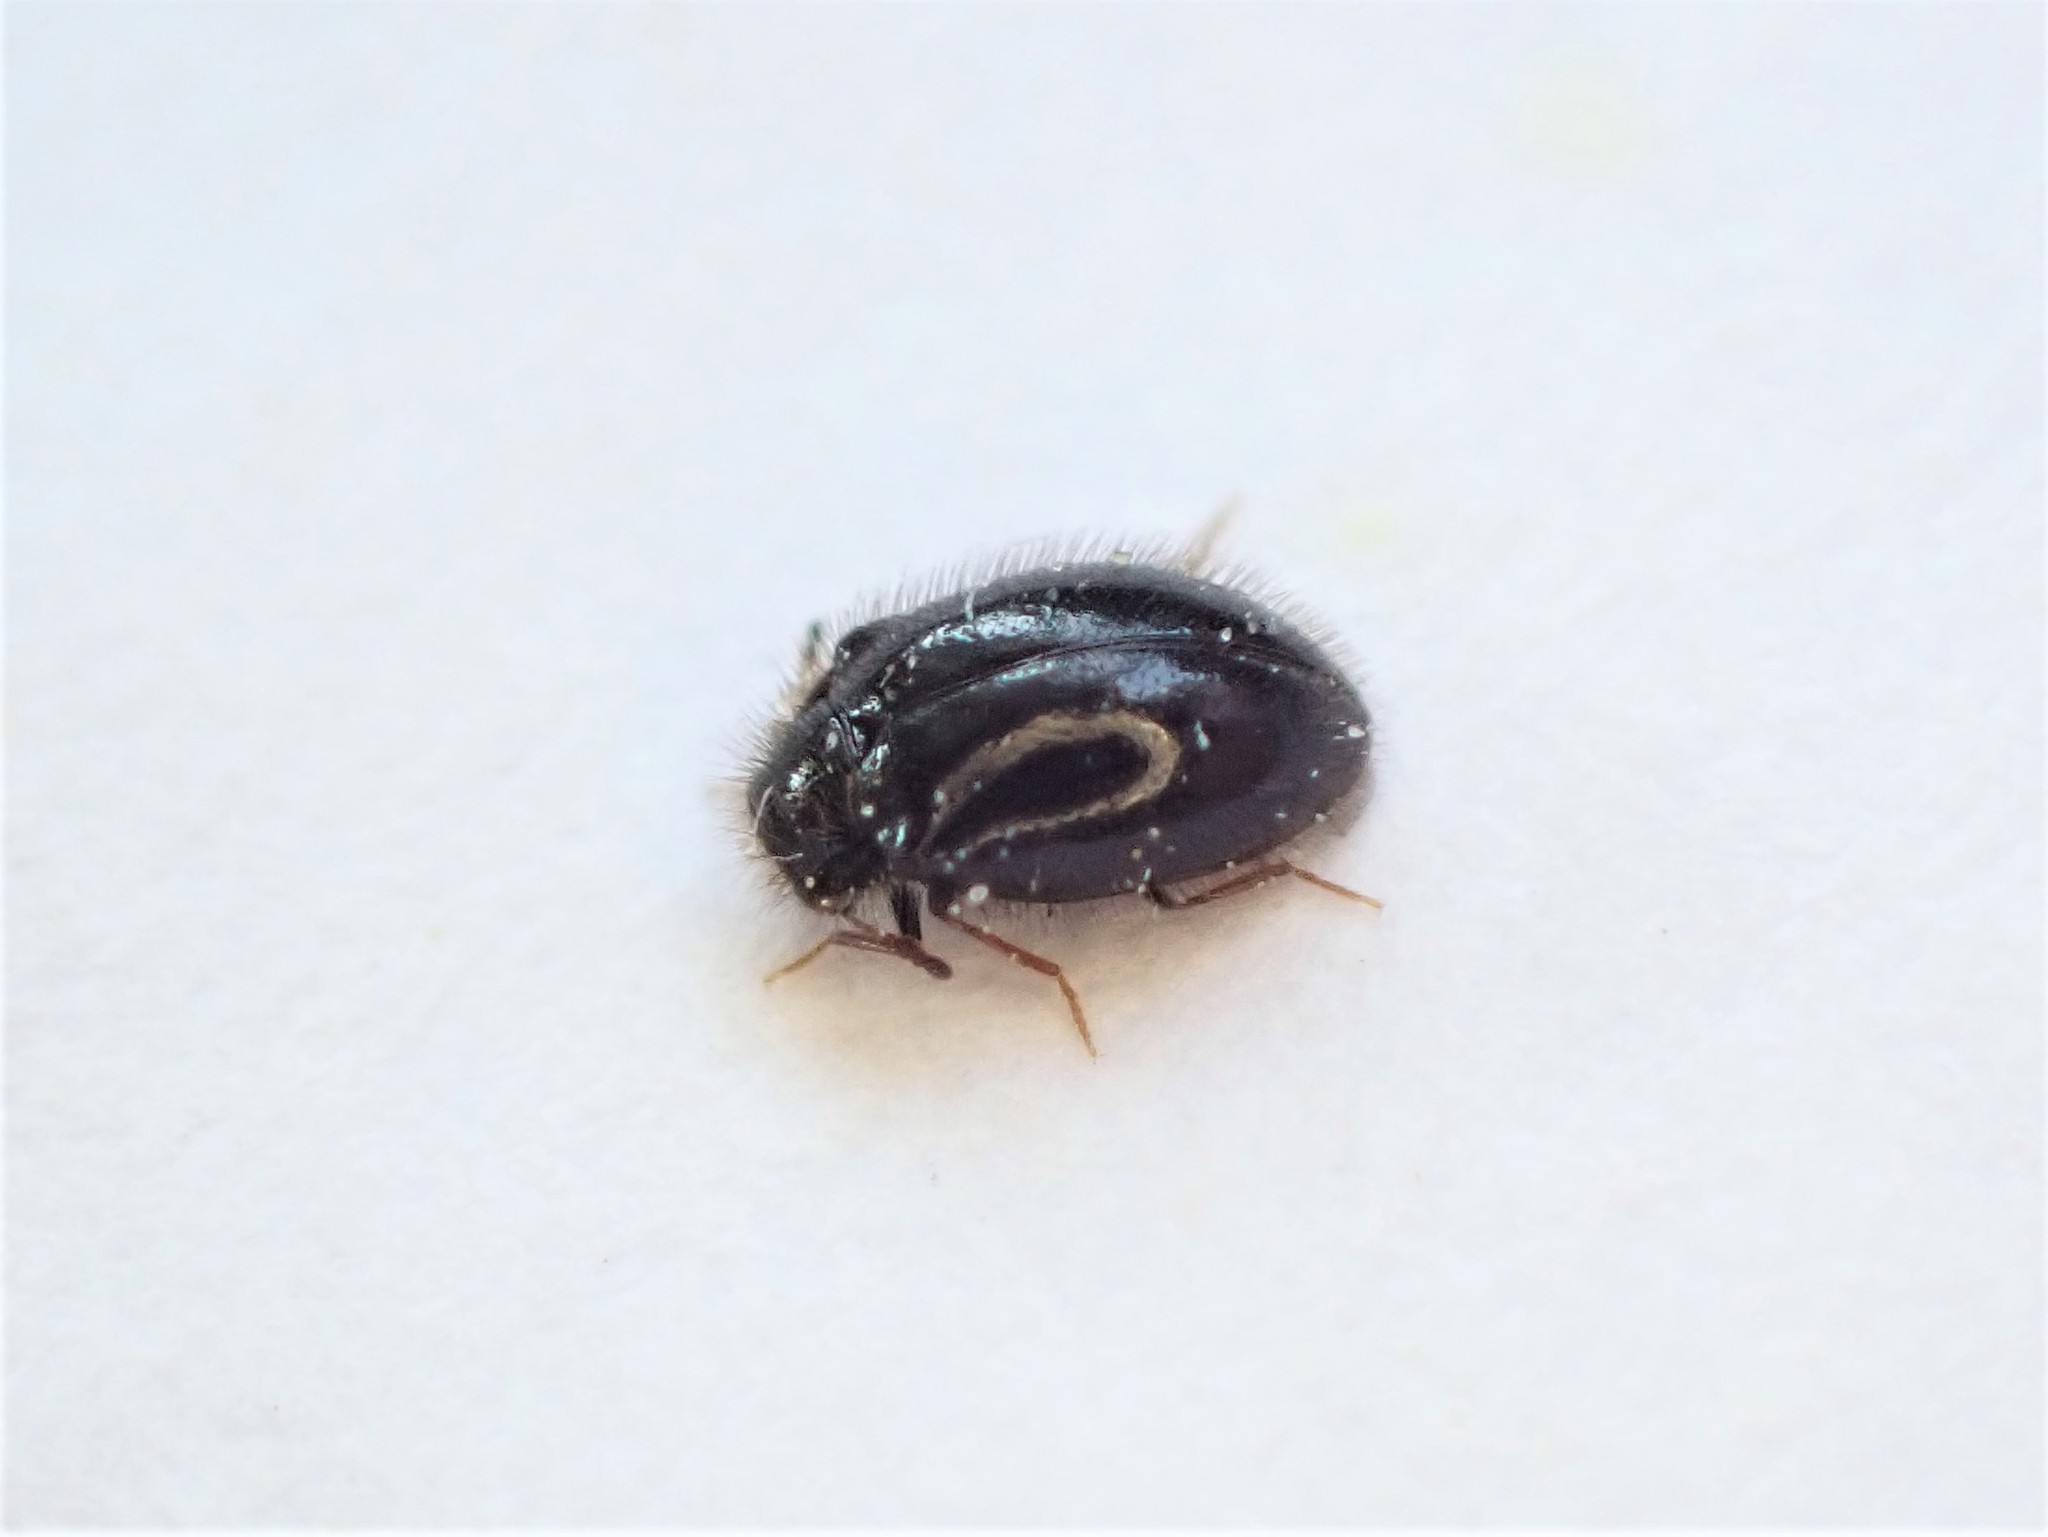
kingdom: Animalia
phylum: Arthropoda
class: Insecta
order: Coleoptera
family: Dermestidae
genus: Hexanodes
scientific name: Hexanodes
